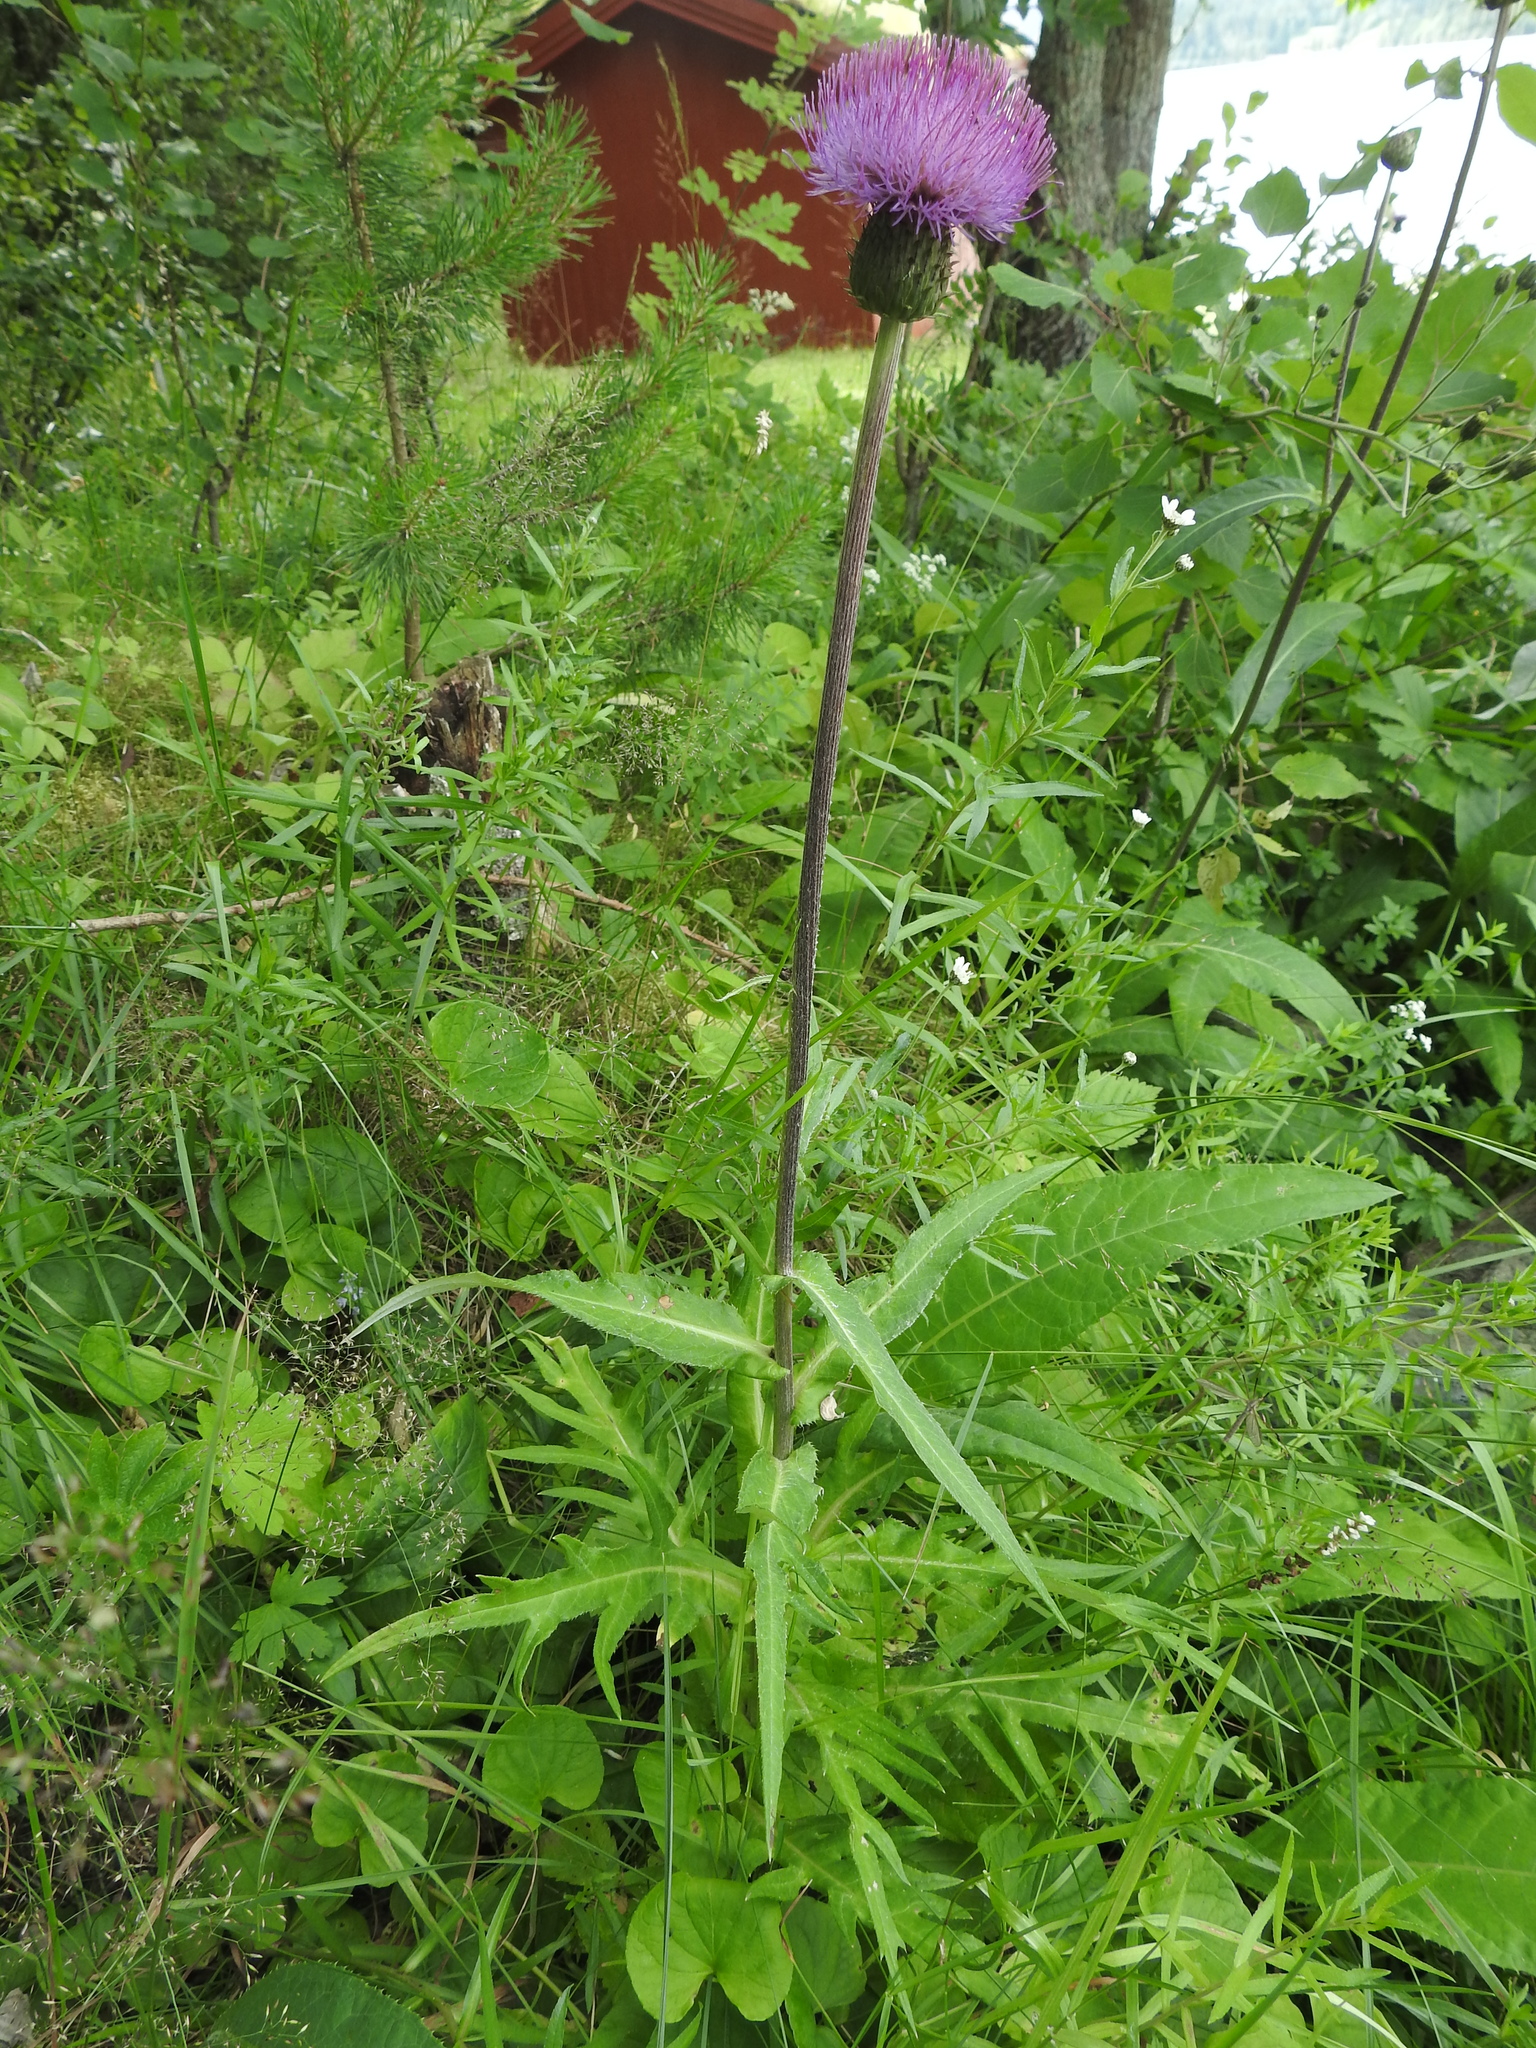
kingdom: Plantae
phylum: Tracheophyta
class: Magnoliopsida
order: Asterales
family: Asteraceae
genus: Cirsium
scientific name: Cirsium heterophyllum
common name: Melancholy thistle
